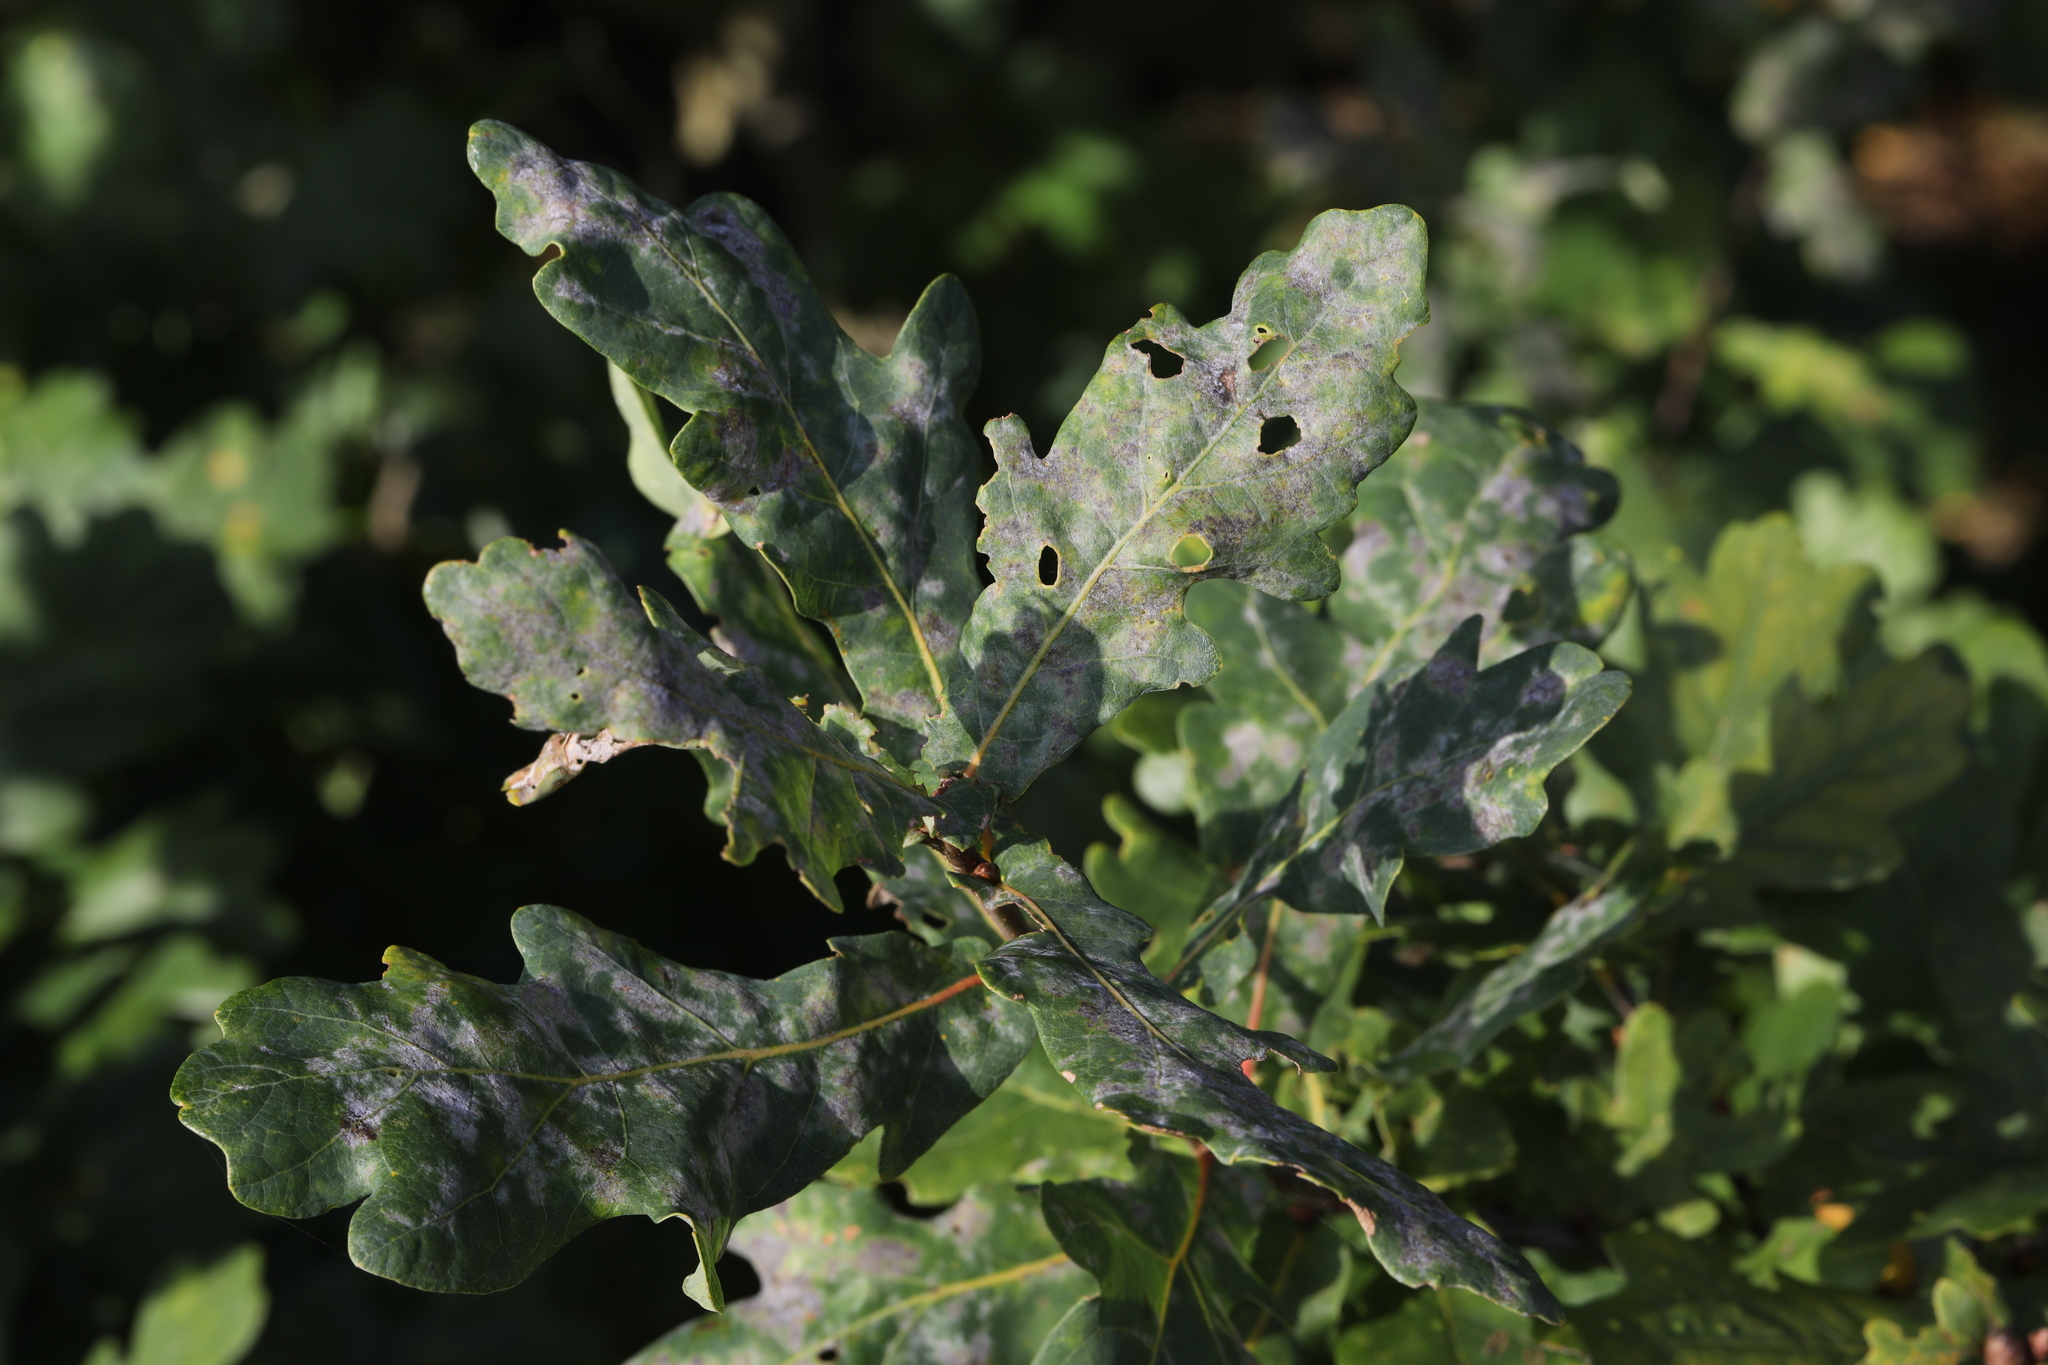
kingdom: Fungi
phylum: Ascomycota
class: Leotiomycetes
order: Helotiales
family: Erysiphaceae
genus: Erysiphe
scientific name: Erysiphe alphitoides
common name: Oak mildew
